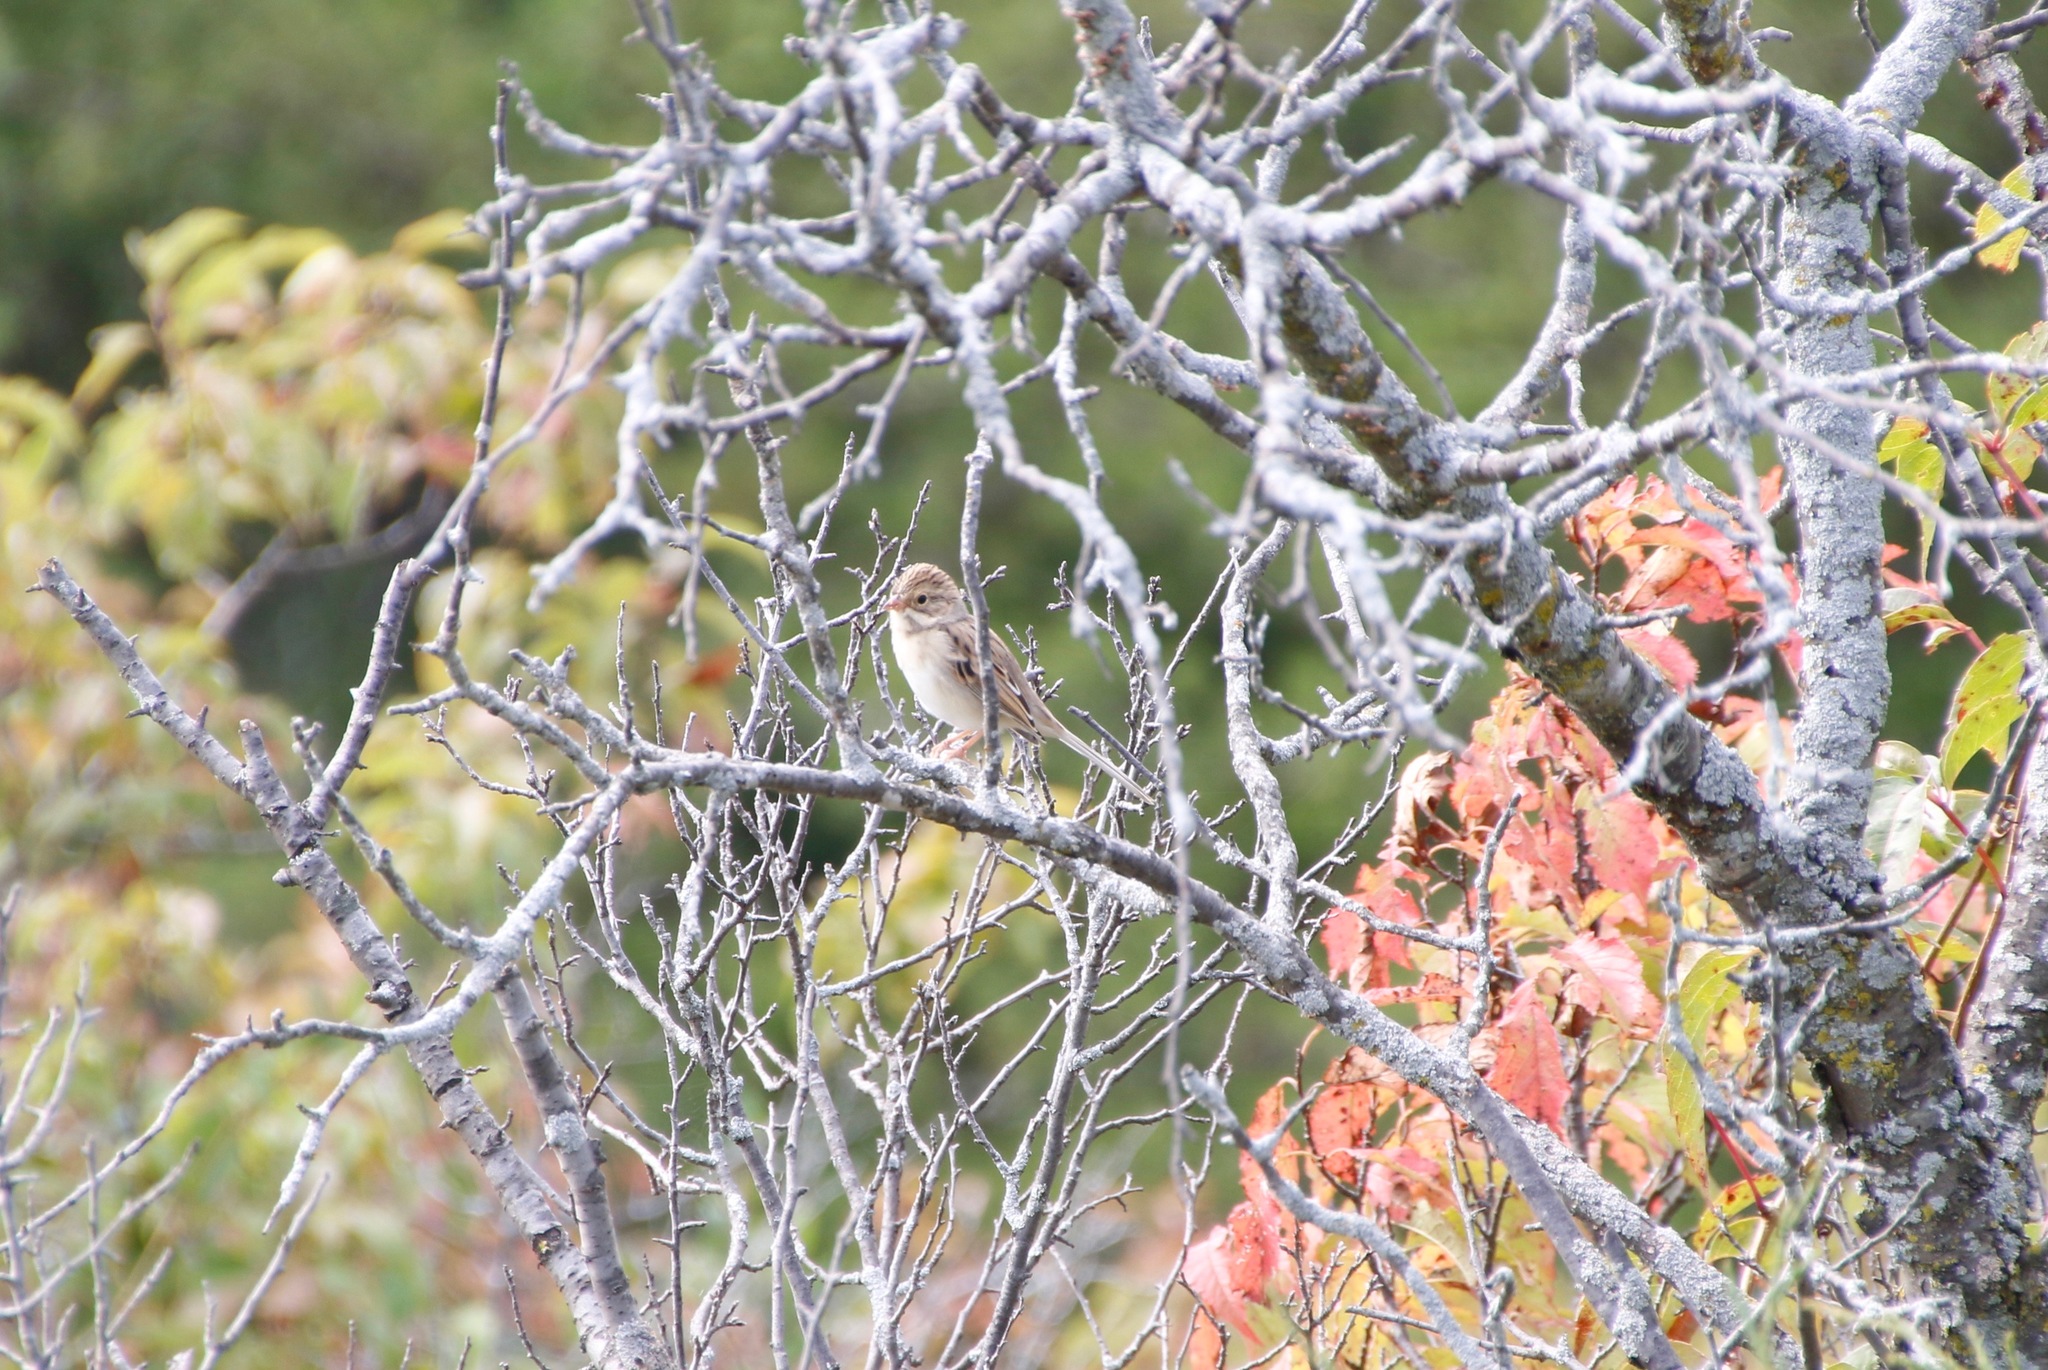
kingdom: Animalia
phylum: Chordata
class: Aves
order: Passeriformes
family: Passerellidae
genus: Spizella
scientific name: Spizella pallida
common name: Clay-colored sparrow
